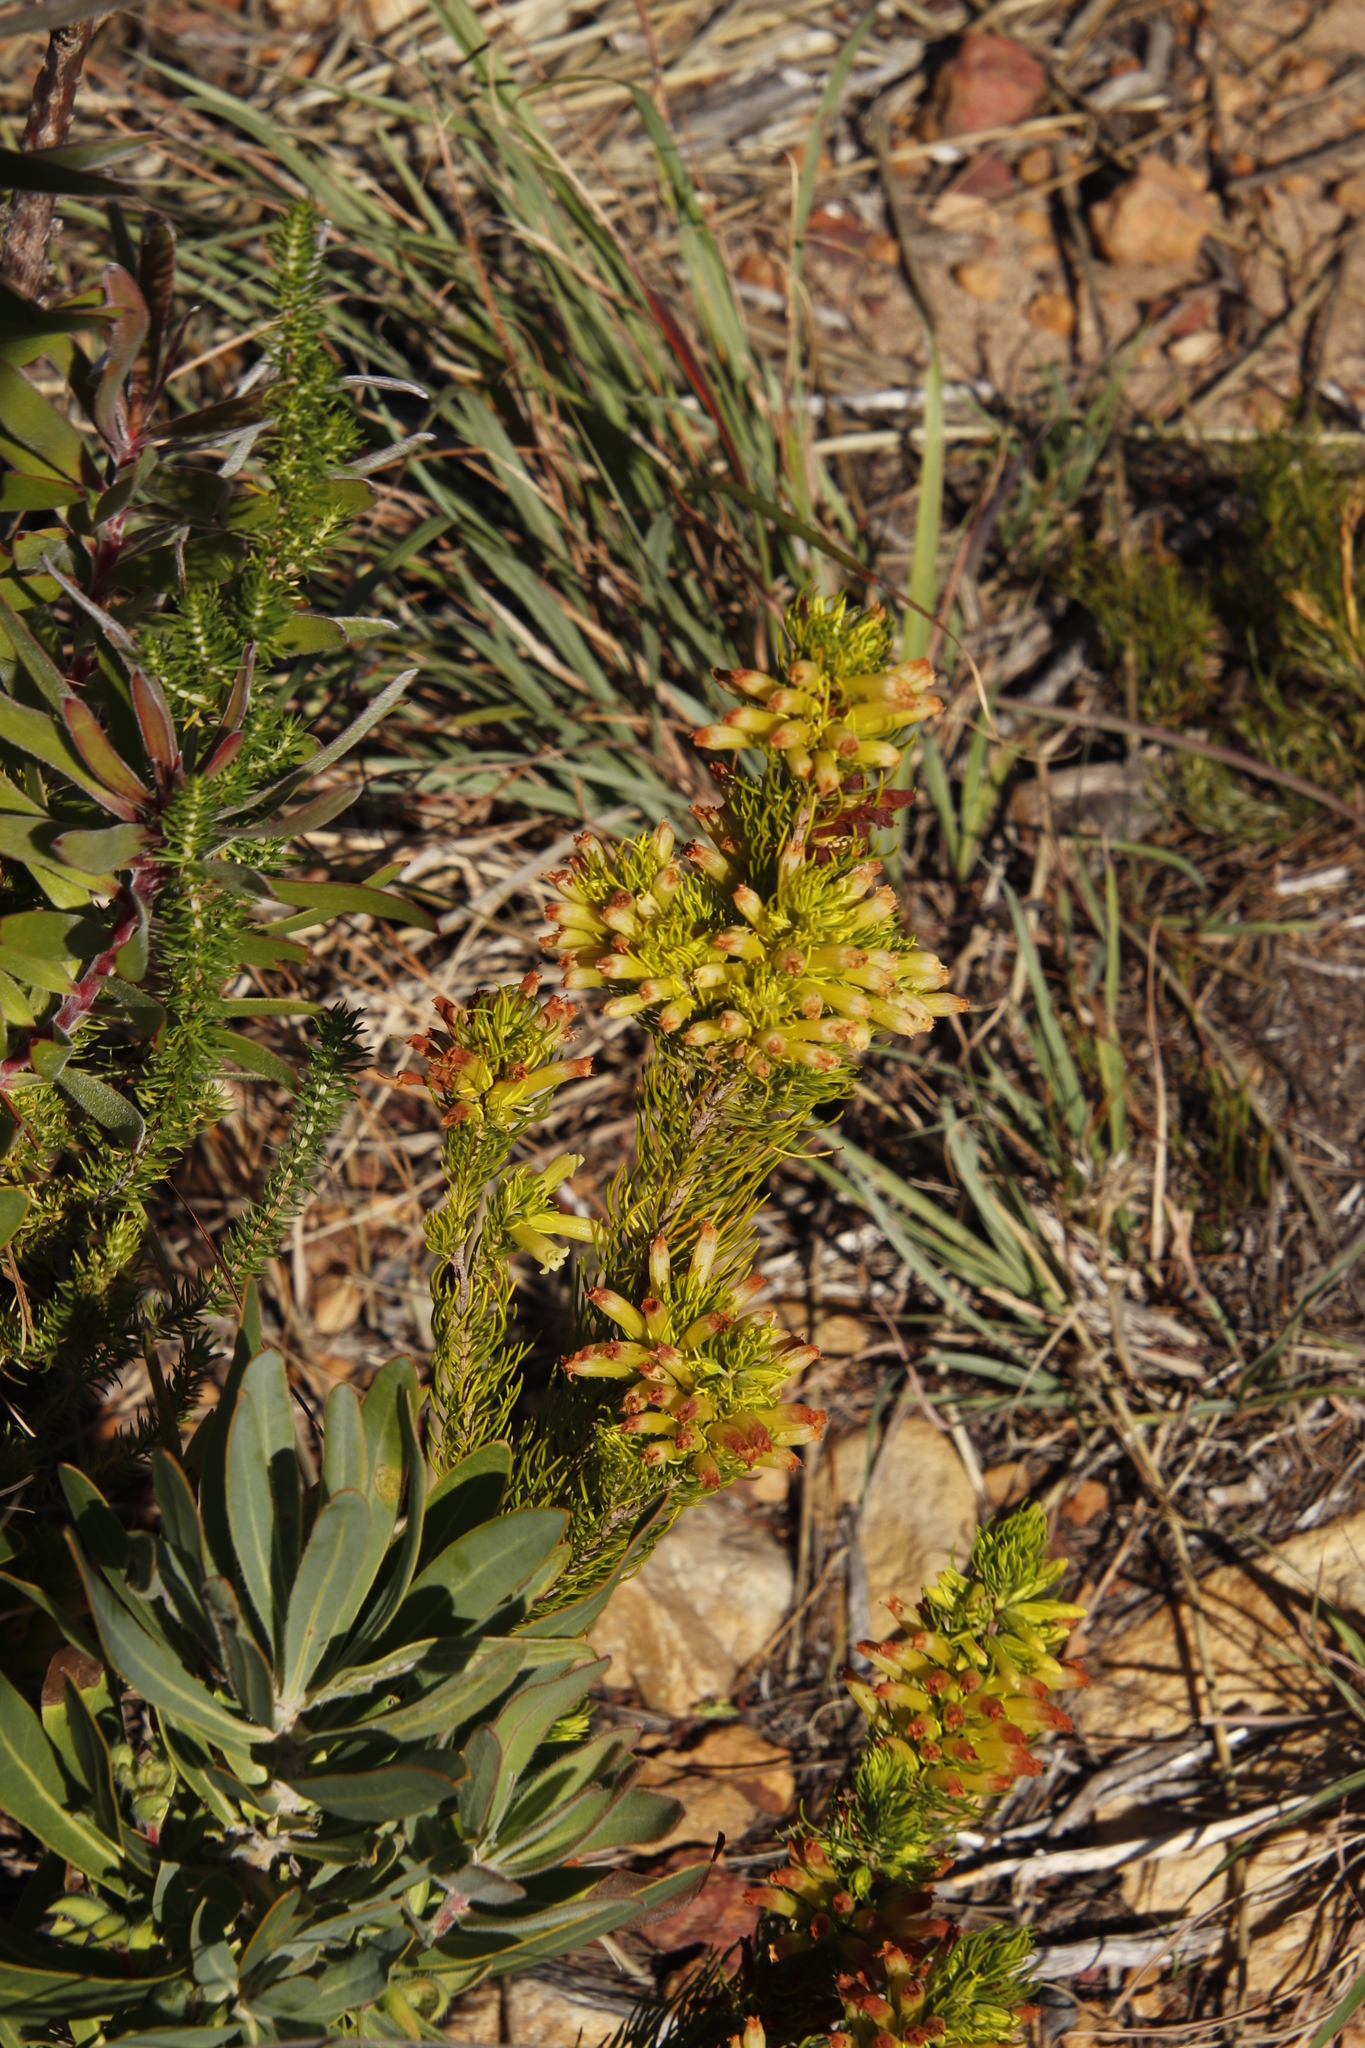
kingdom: Plantae
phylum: Tracheophyta
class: Magnoliopsida
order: Ericales
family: Ericaceae
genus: Erica
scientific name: Erica viscaria
